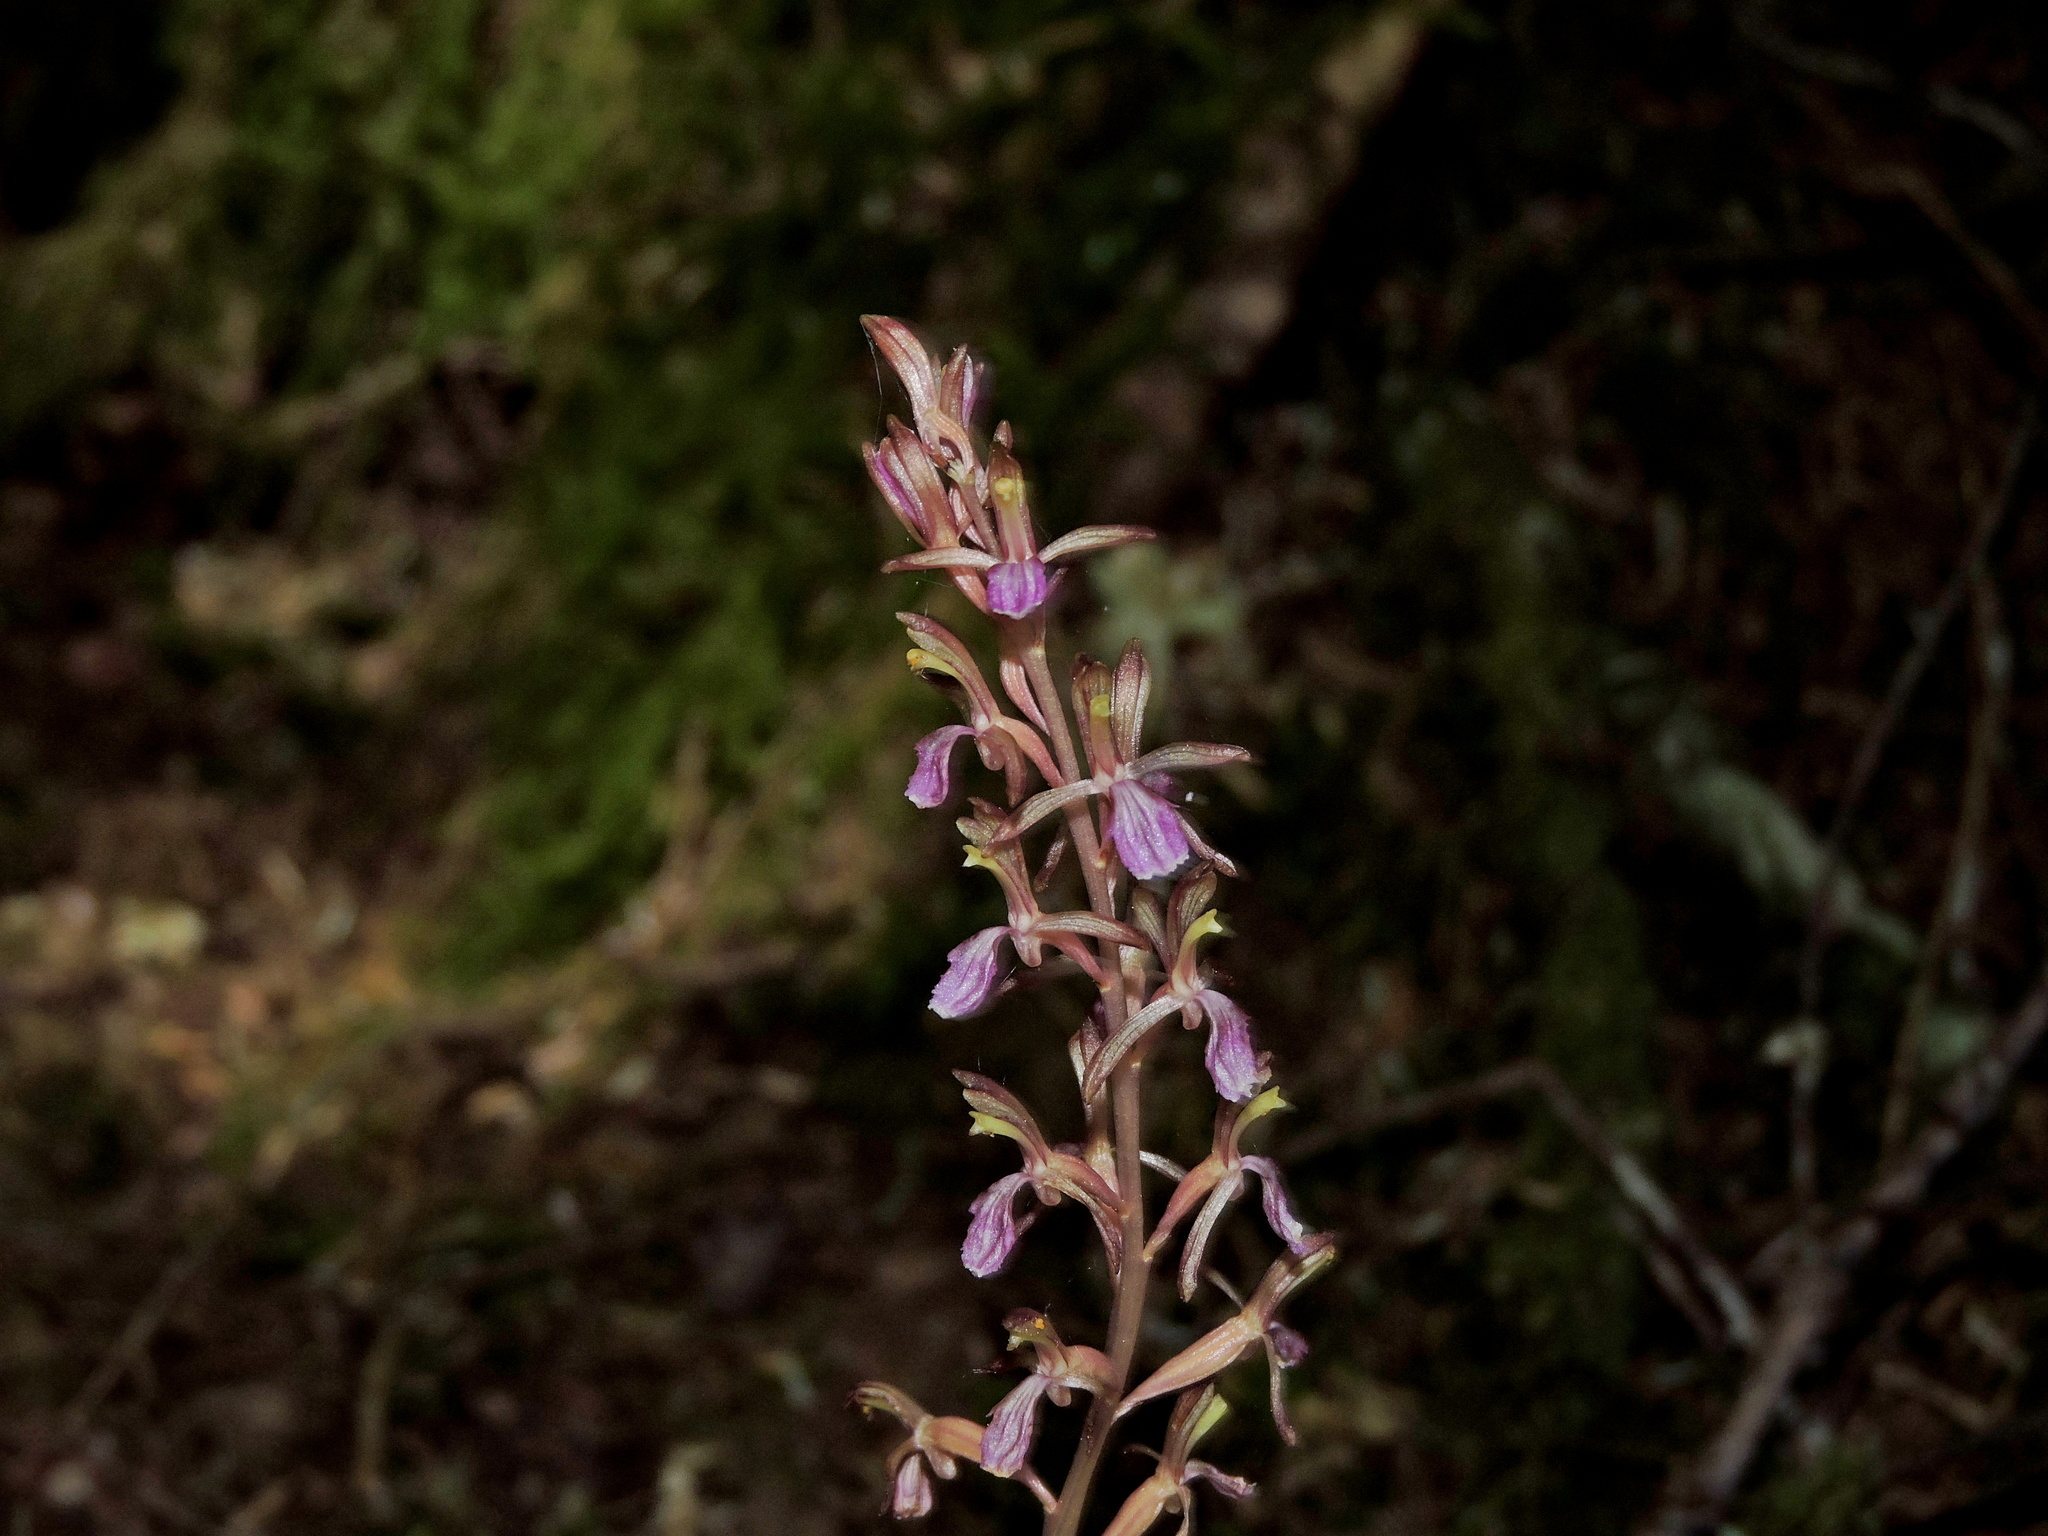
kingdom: Plantae
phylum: Tracheophyta
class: Liliopsida
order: Asparagales
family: Orchidaceae
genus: Corallorhiza
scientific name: Corallorhiza mertensiana
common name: Pacific coralroot
